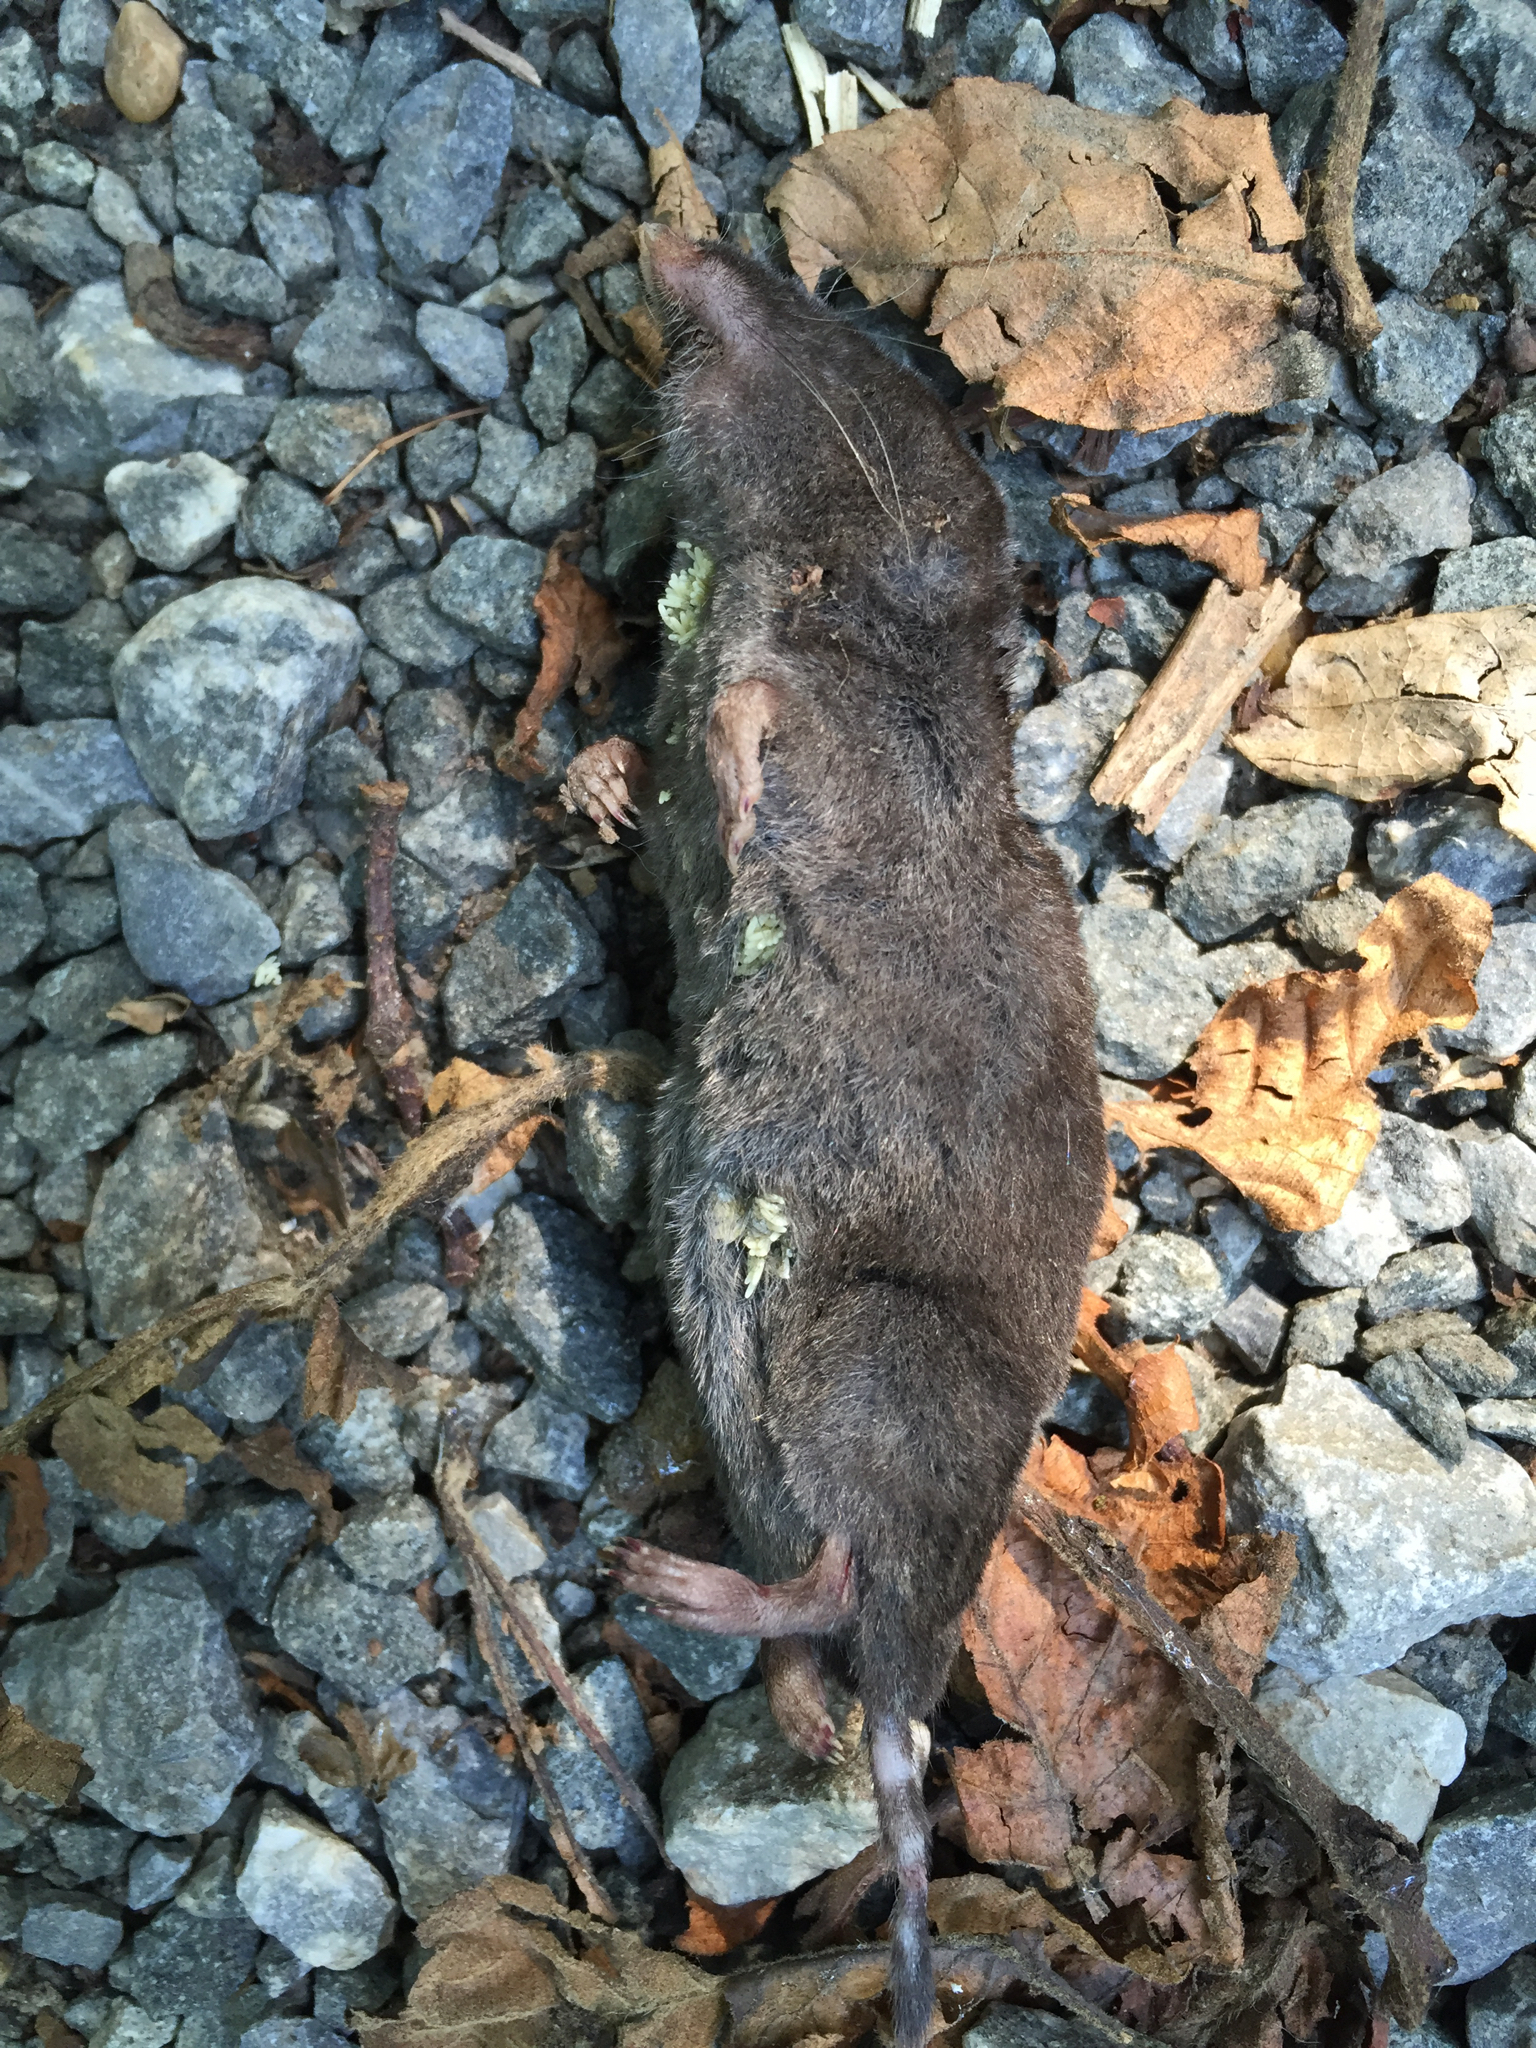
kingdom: Animalia
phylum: Chordata
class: Mammalia
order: Soricomorpha
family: Soricidae
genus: Blarina
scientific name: Blarina brevicauda
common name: Northern short-tailed shrew
